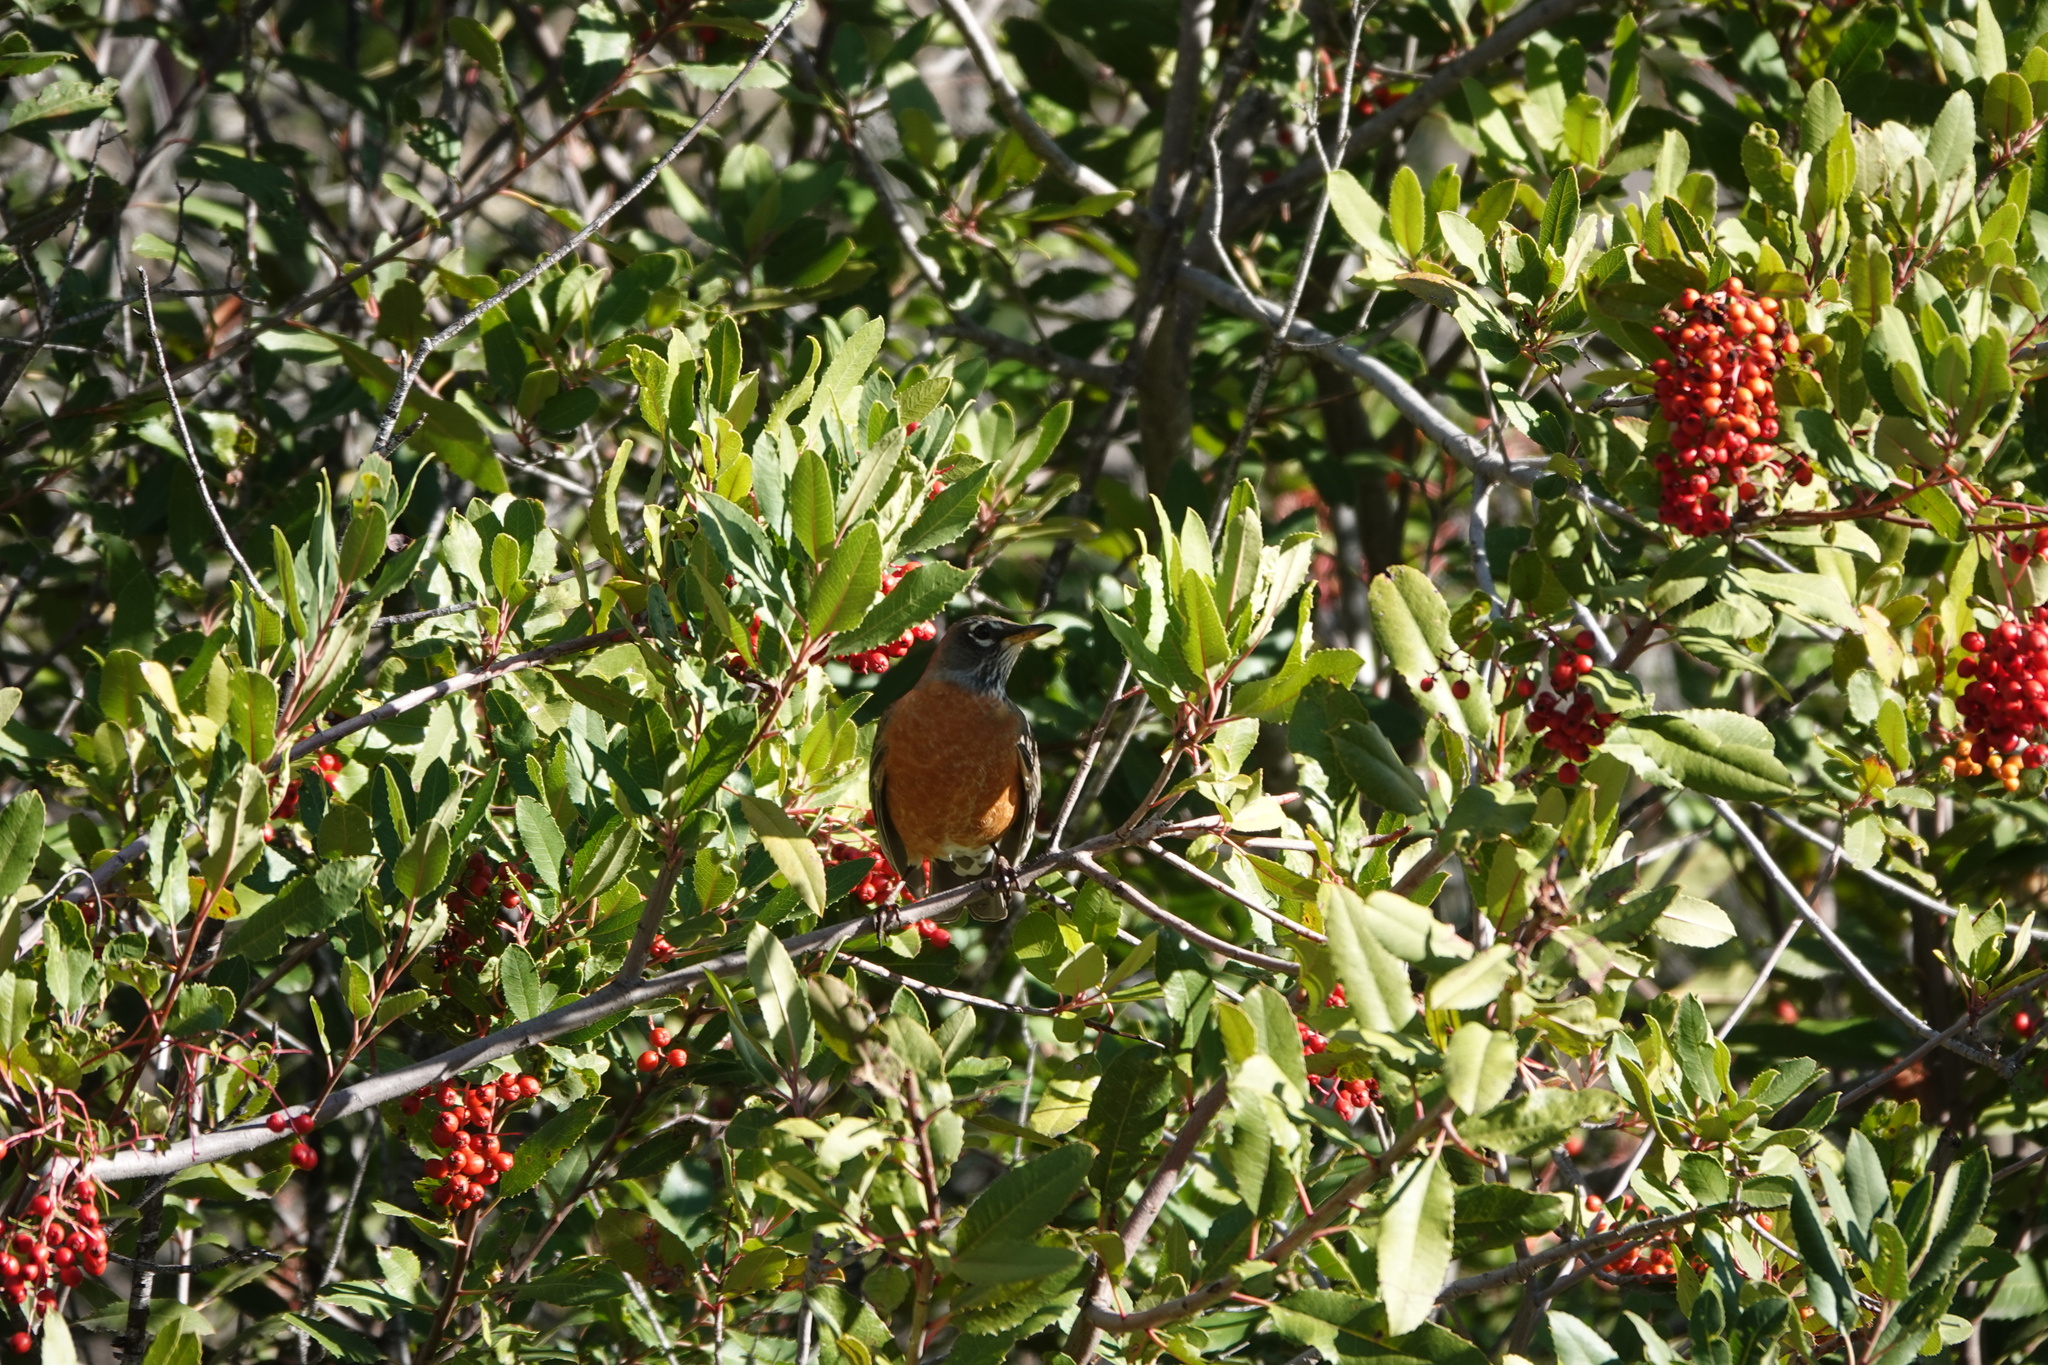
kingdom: Animalia
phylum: Chordata
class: Aves
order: Passeriformes
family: Turdidae
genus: Turdus
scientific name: Turdus migratorius
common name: American robin
